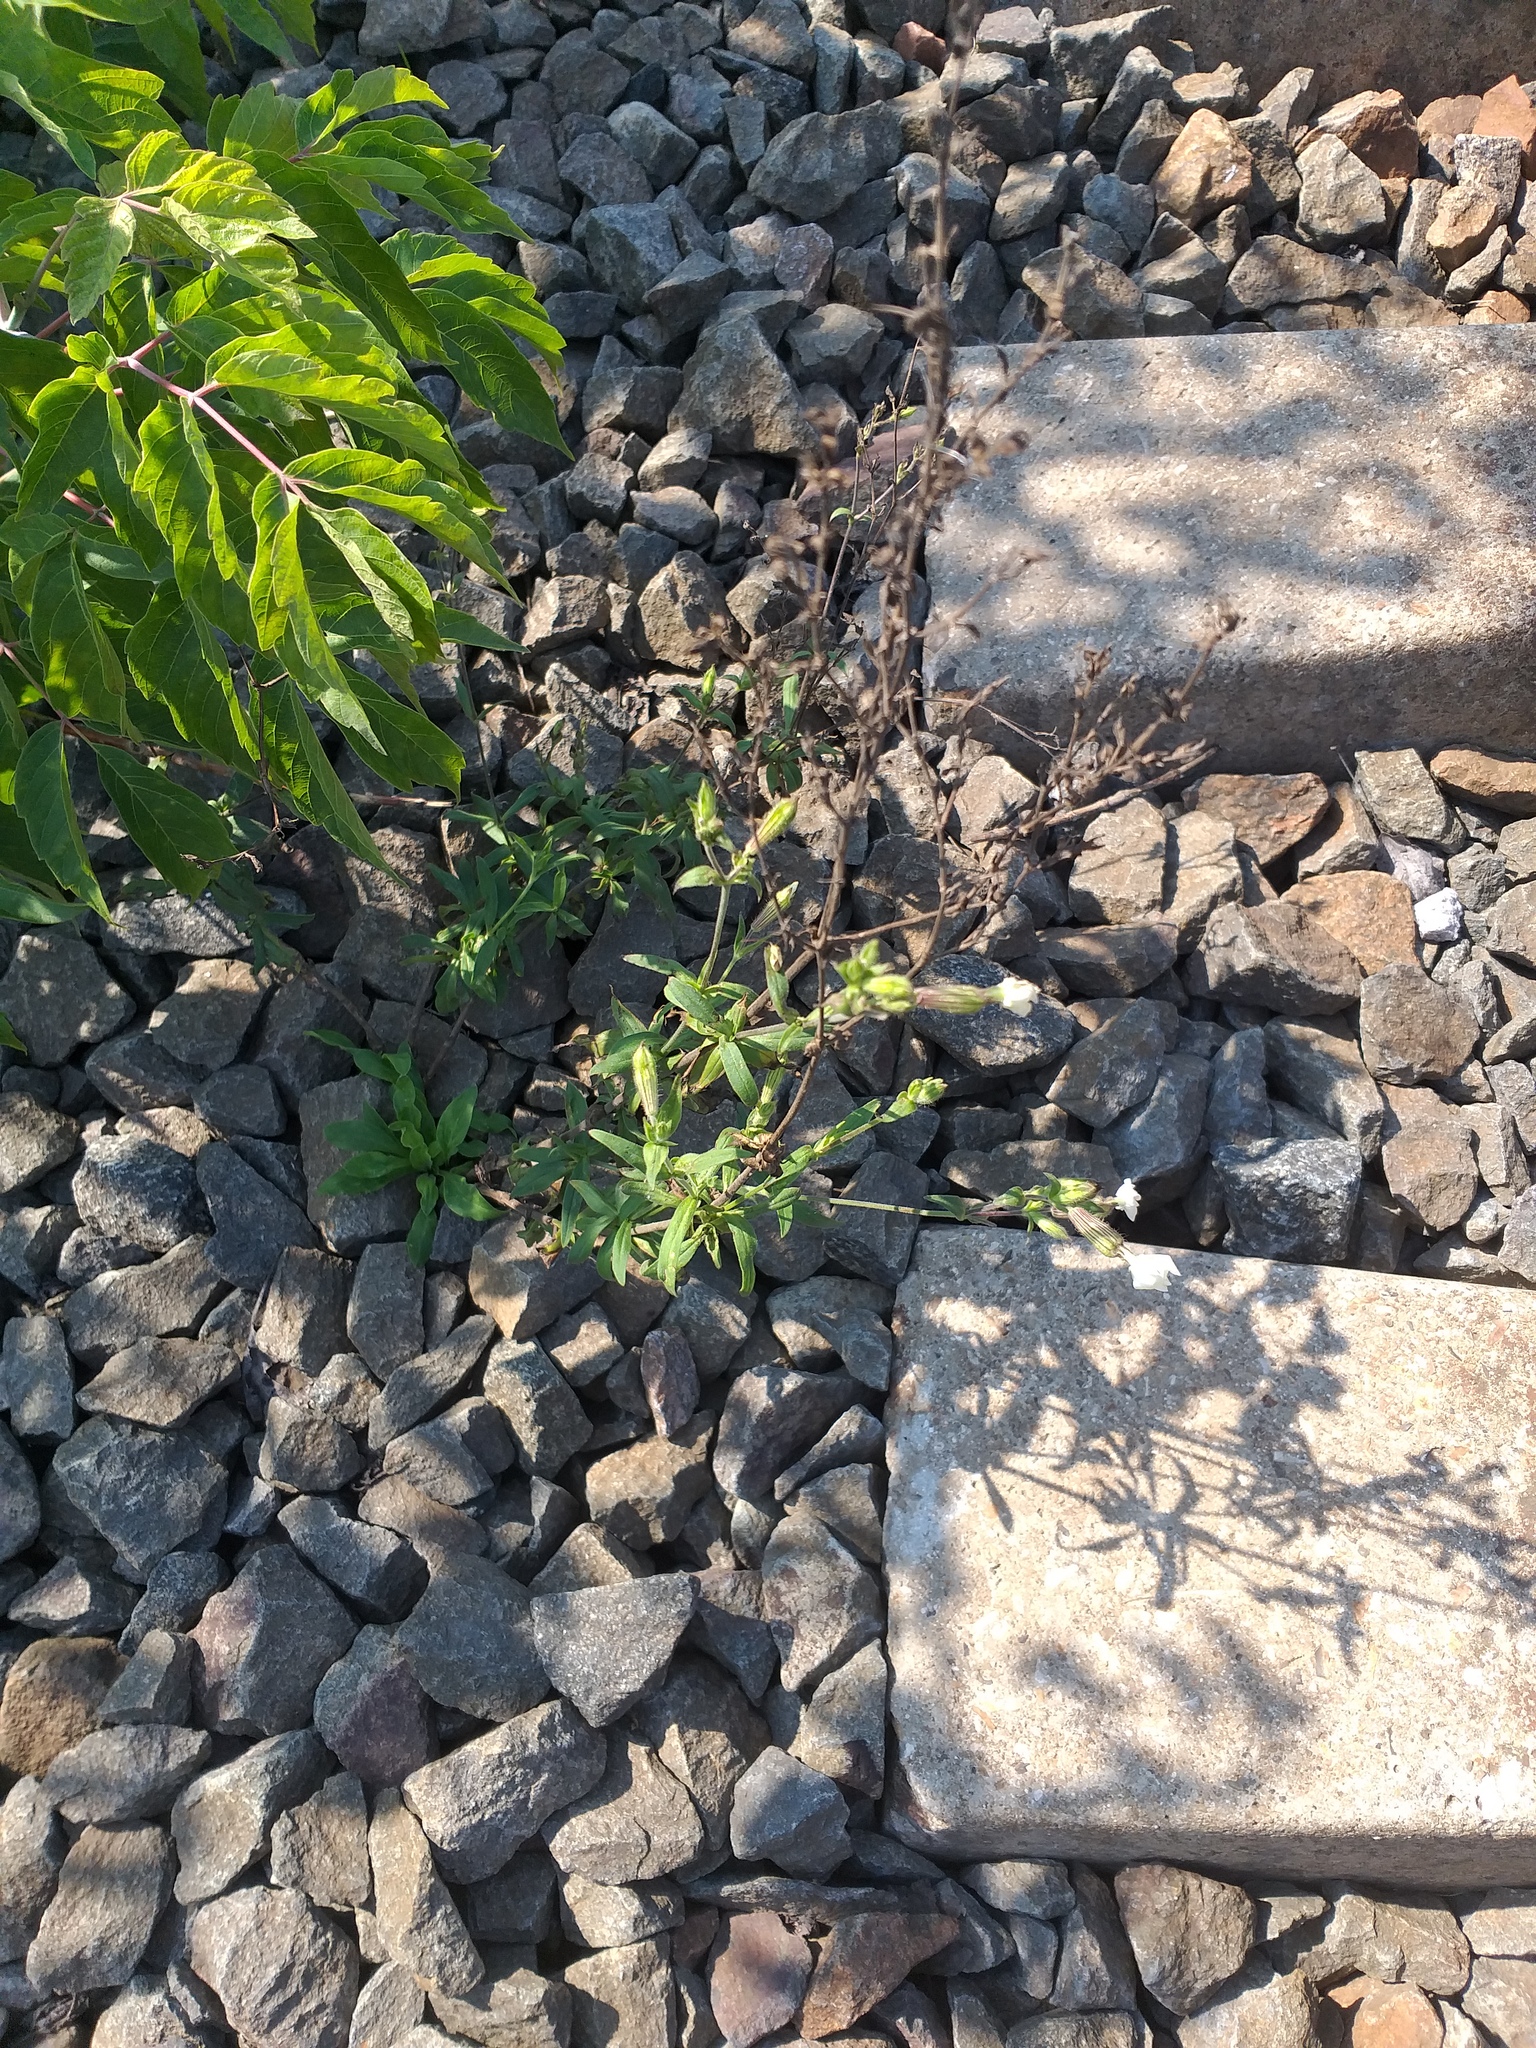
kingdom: Plantae
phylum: Tracheophyta
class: Magnoliopsida
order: Caryophyllales
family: Caryophyllaceae
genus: Silene
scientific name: Silene latifolia
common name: White campion
